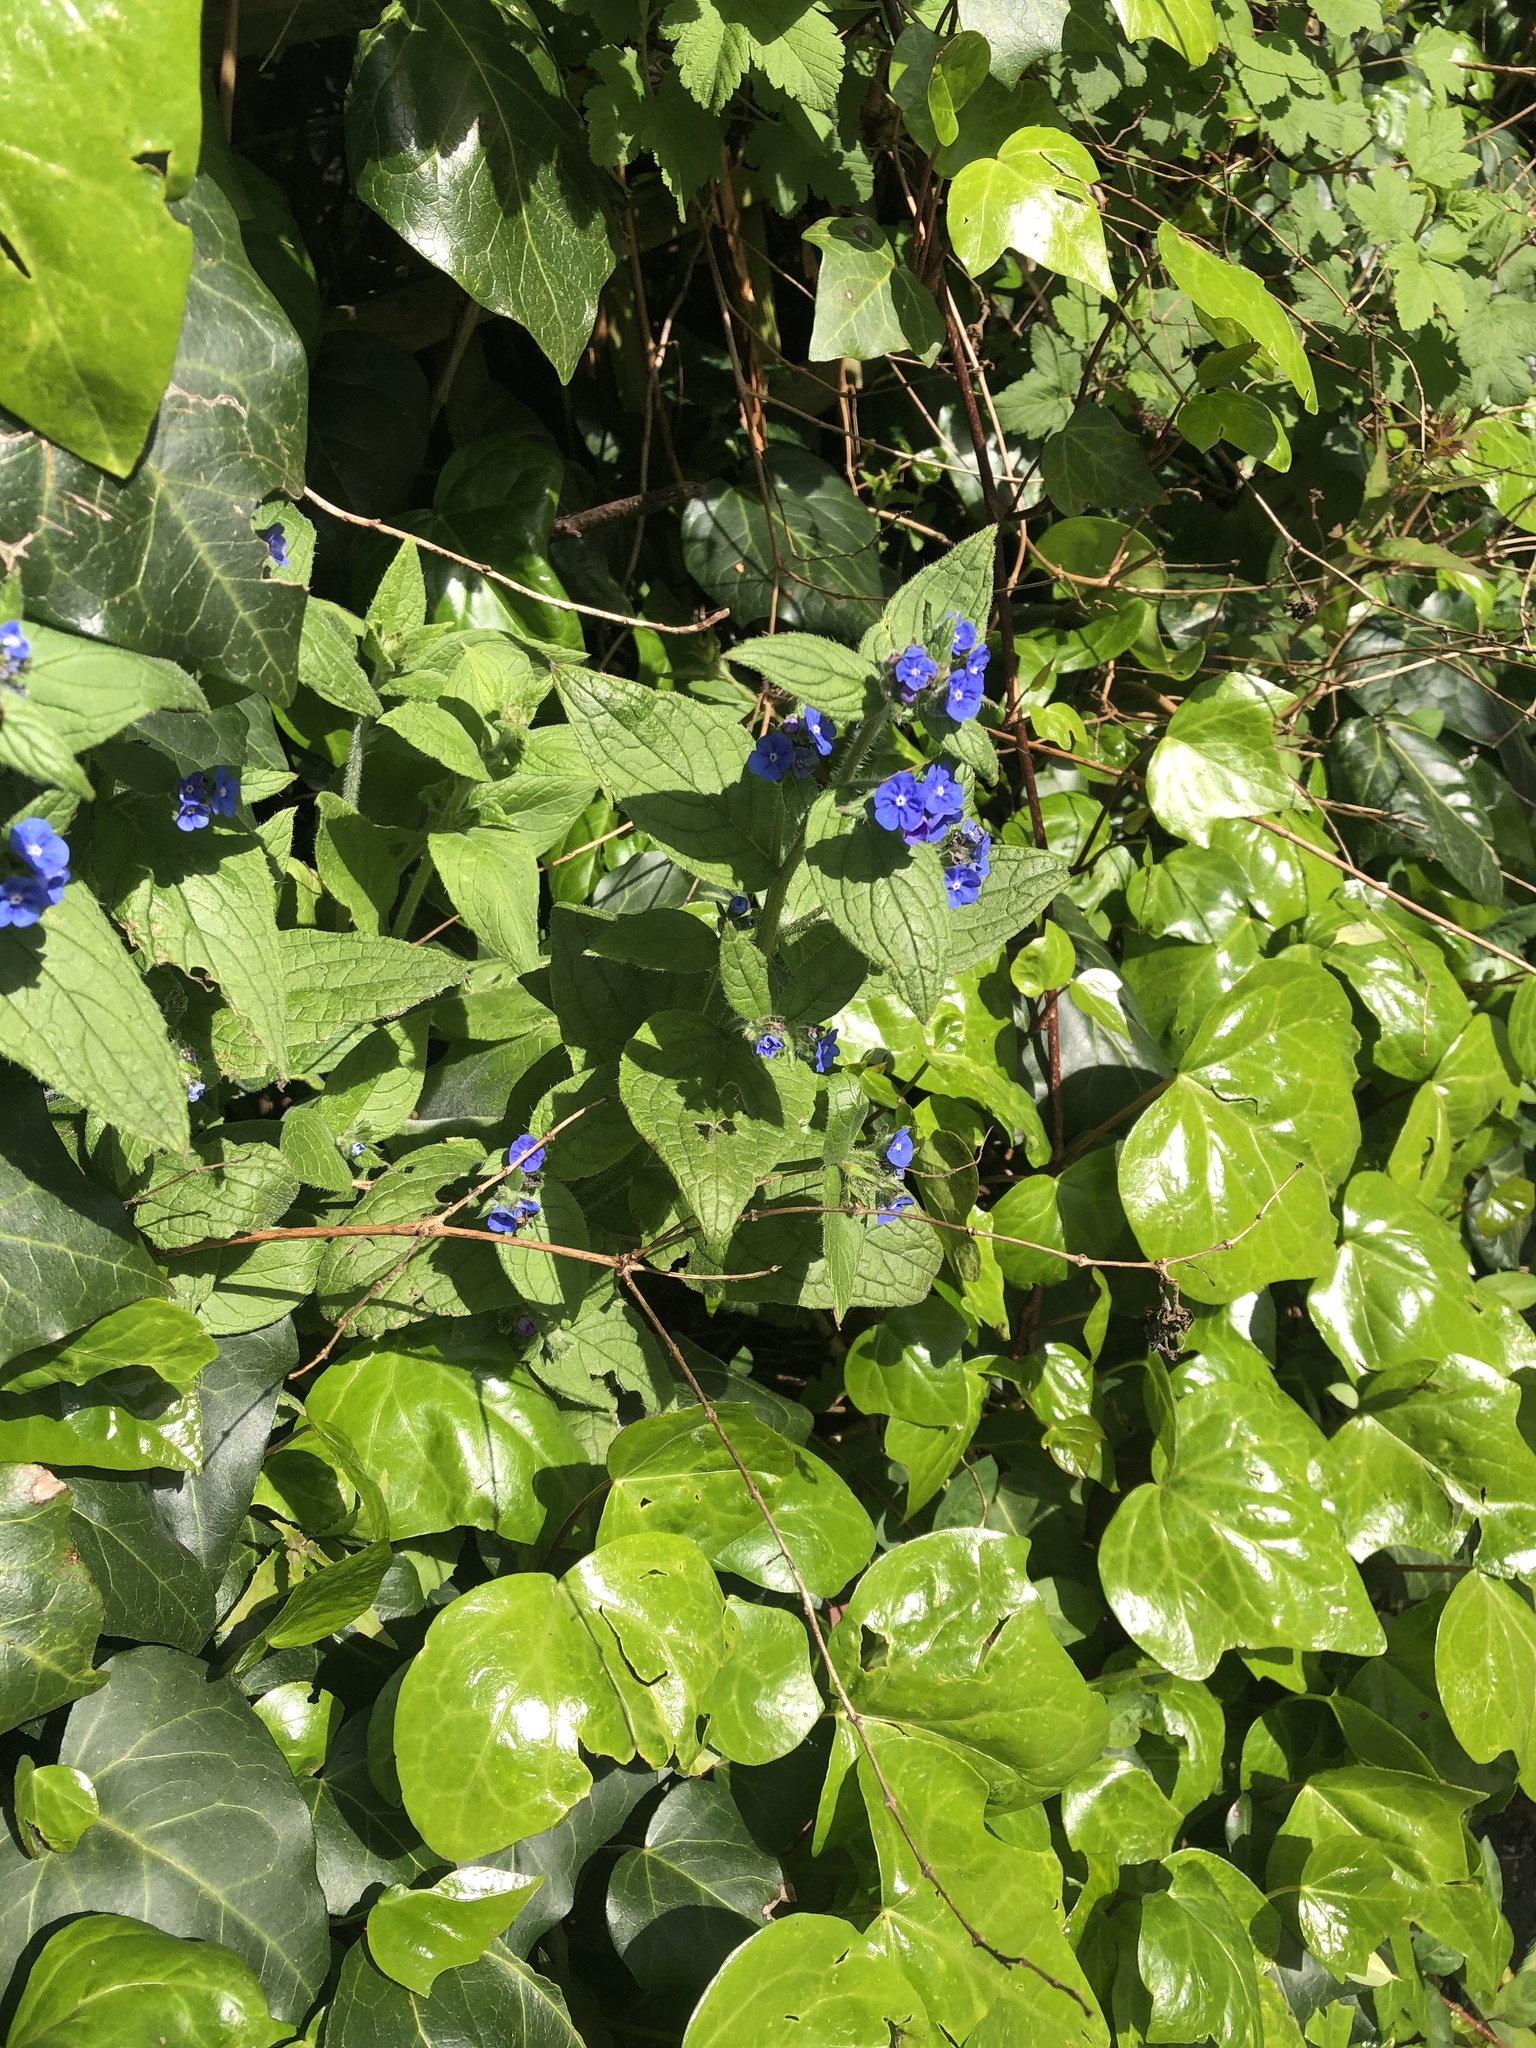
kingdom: Plantae
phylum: Tracheophyta
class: Magnoliopsida
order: Boraginales
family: Boraginaceae
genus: Pentaglottis
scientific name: Pentaglottis sempervirens
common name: Green alkanet
